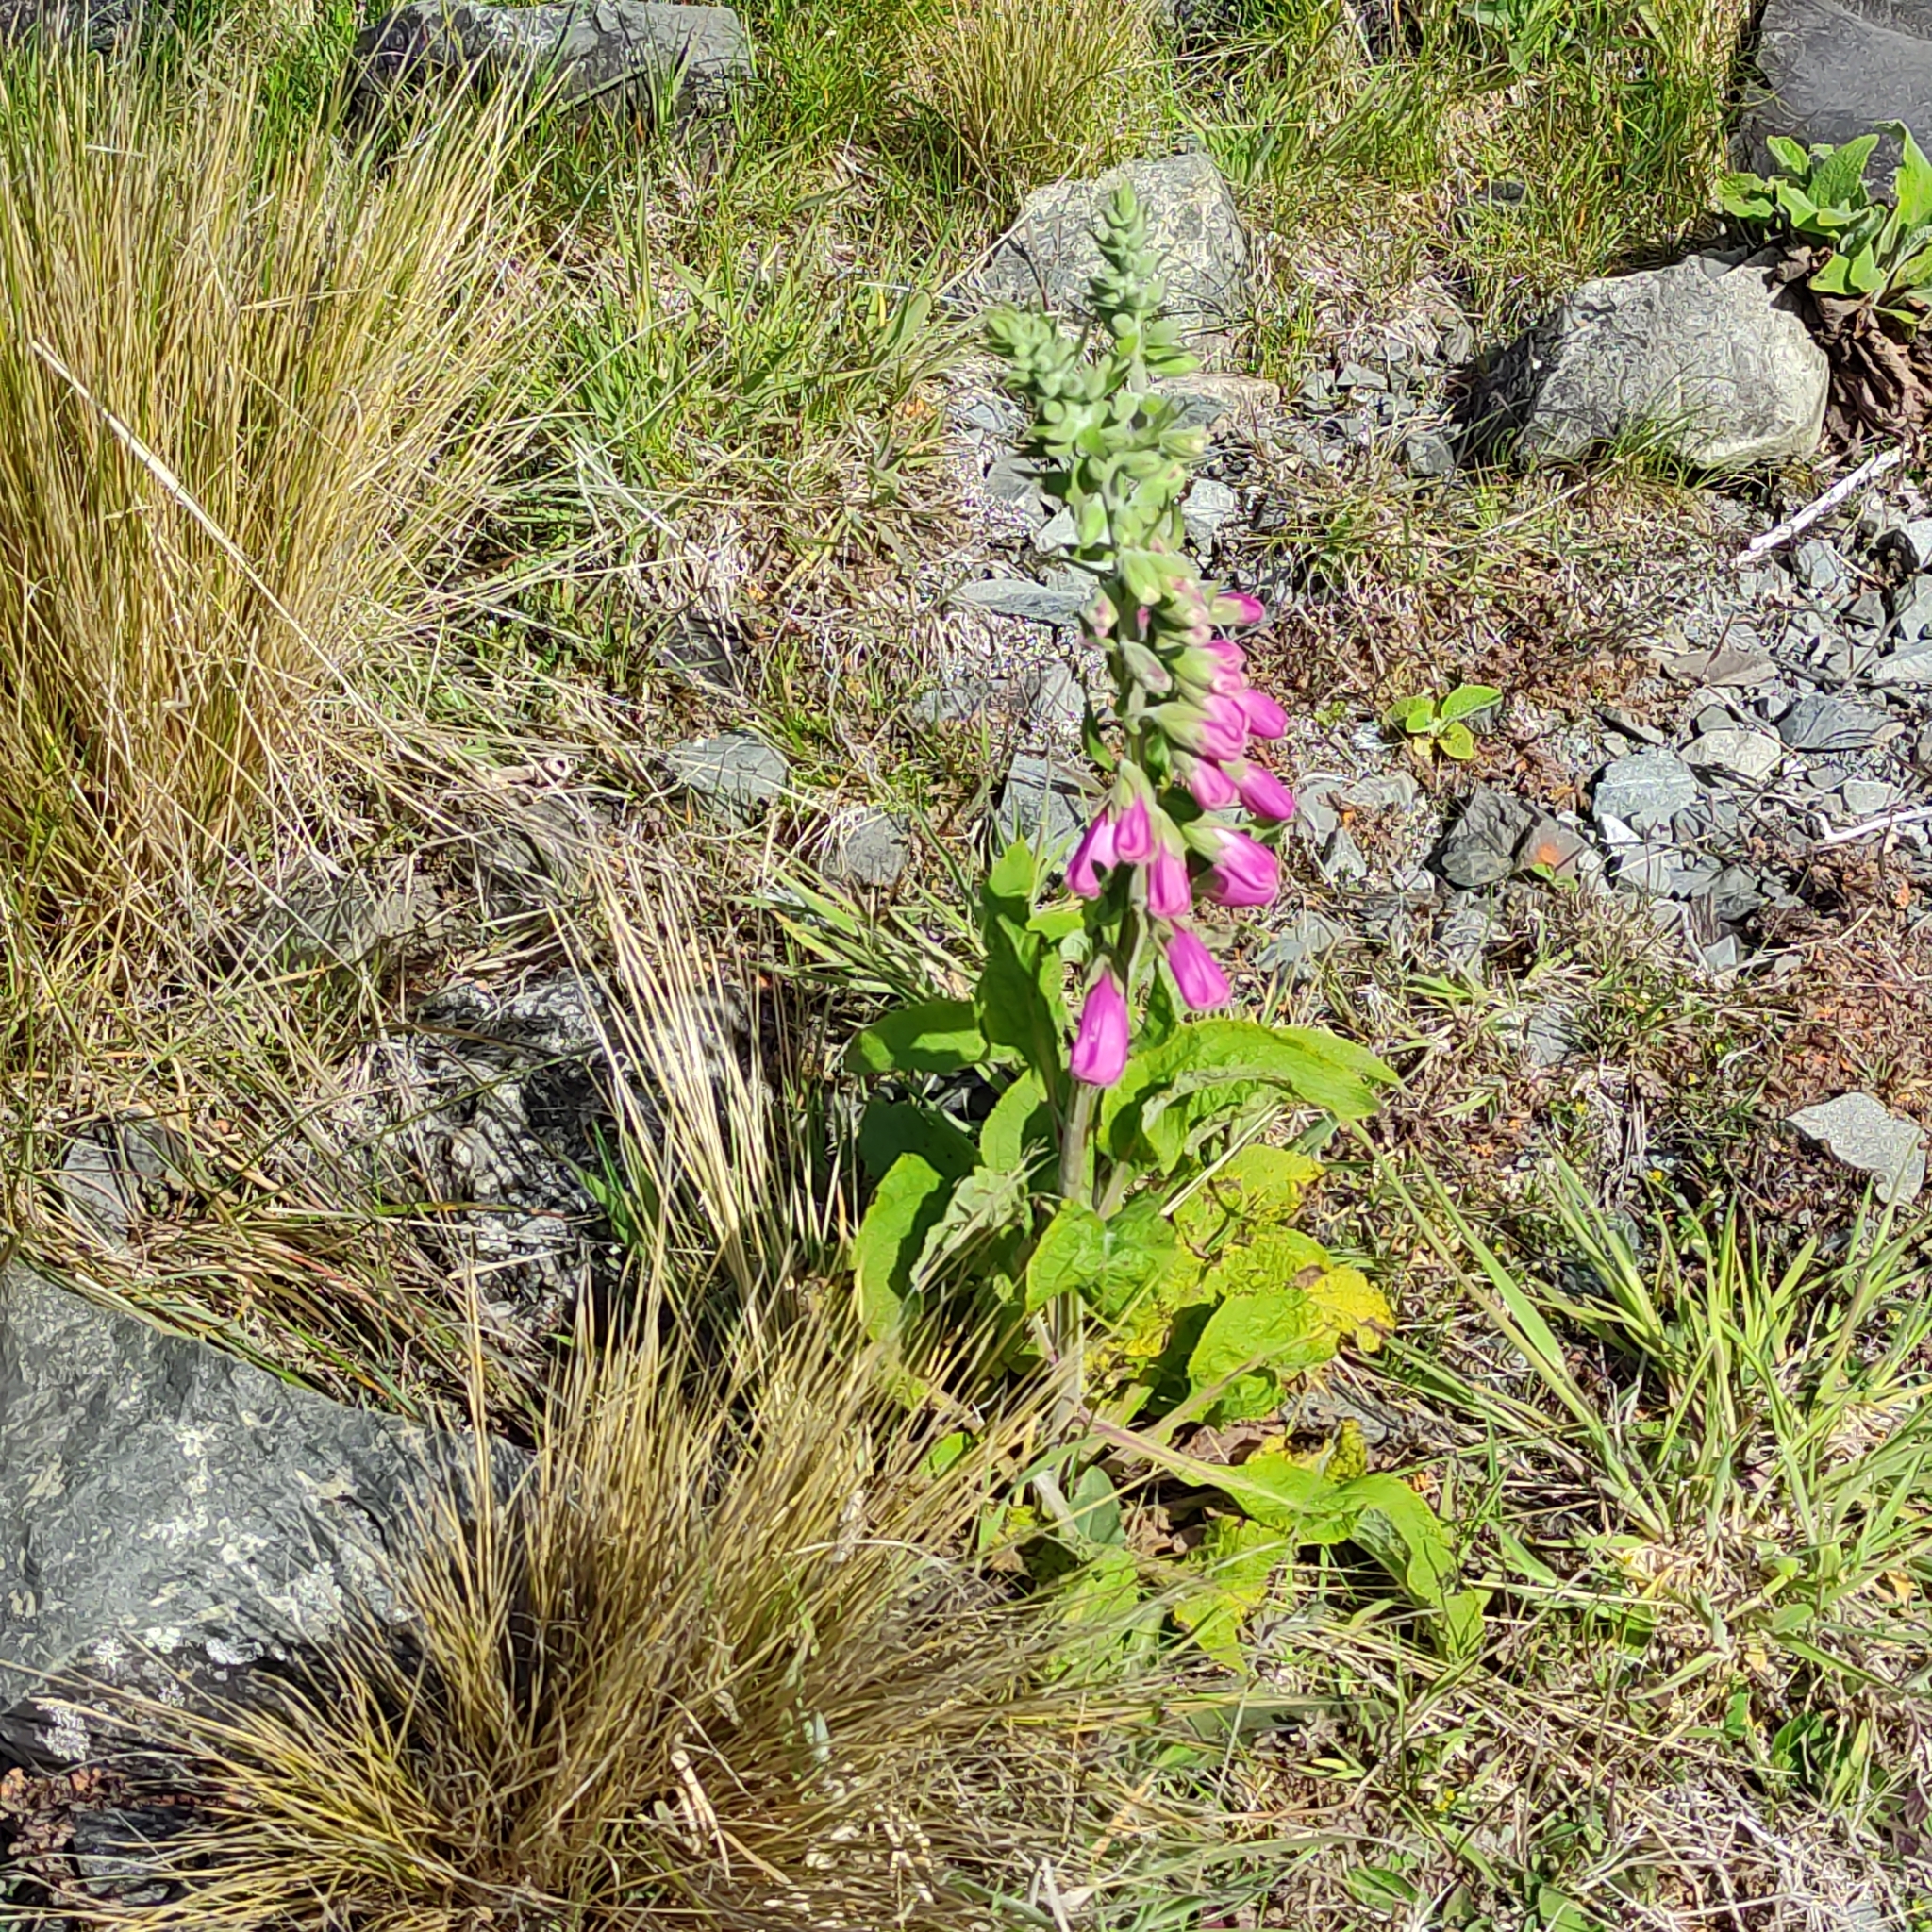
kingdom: Plantae
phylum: Tracheophyta
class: Magnoliopsida
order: Lamiales
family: Plantaginaceae
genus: Digitalis
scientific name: Digitalis purpurea
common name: Foxglove
